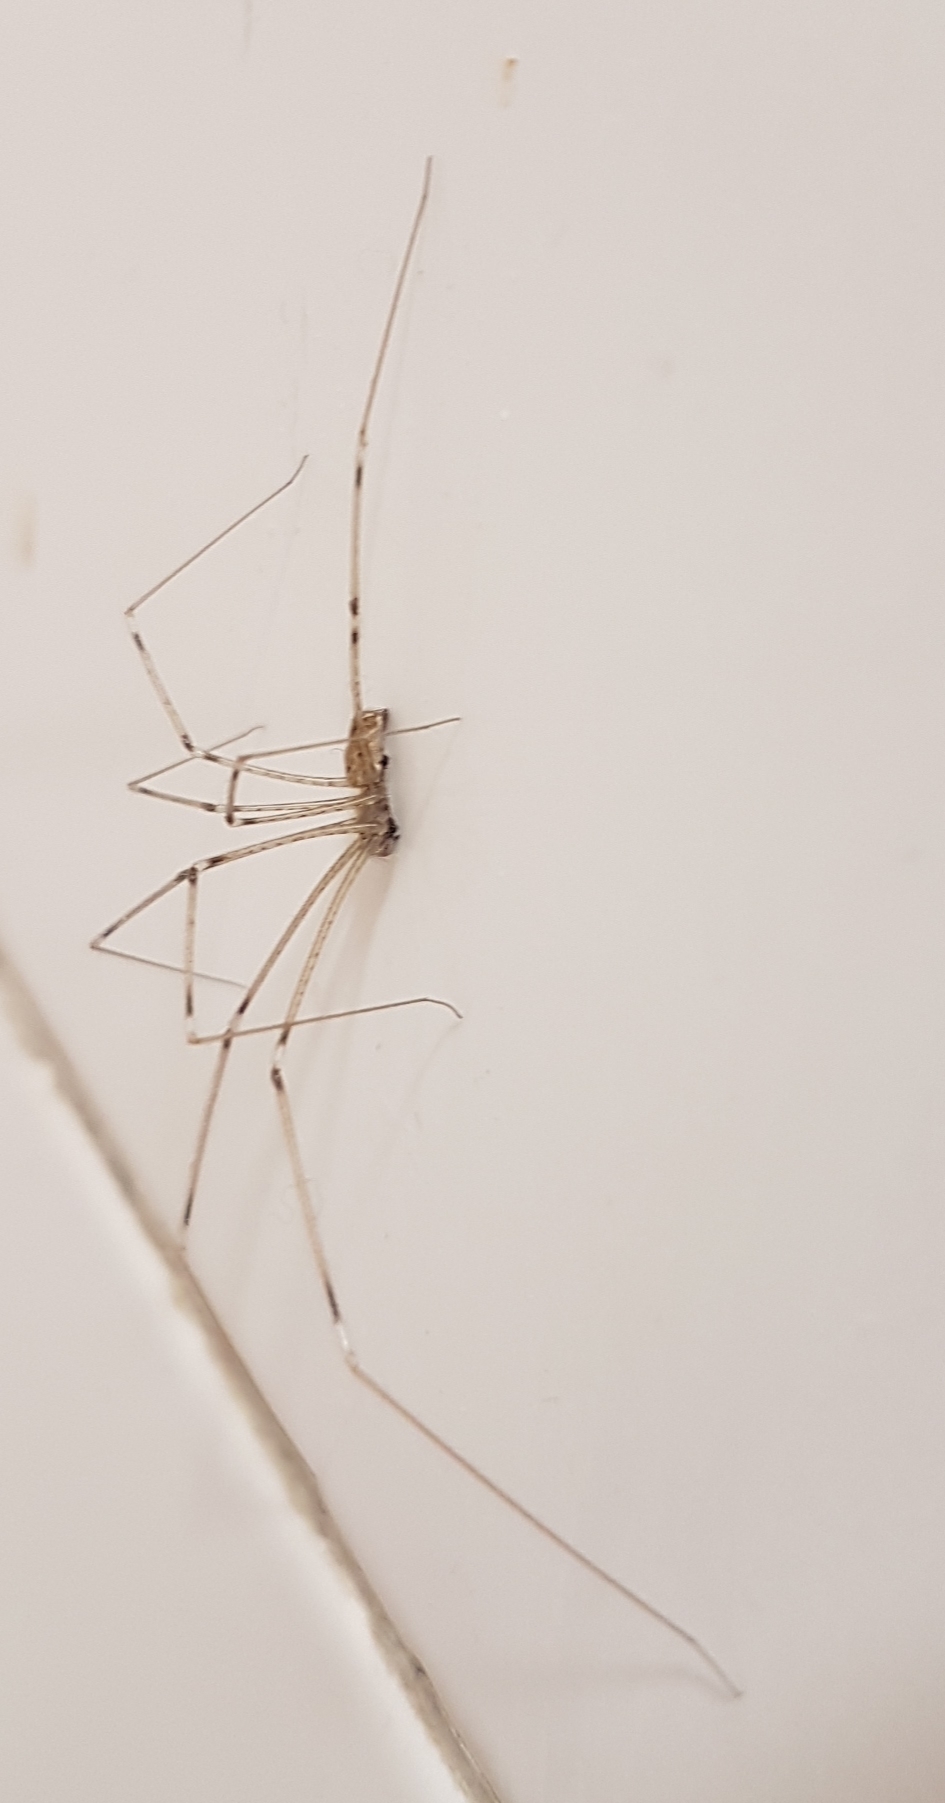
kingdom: Animalia
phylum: Arthropoda
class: Arachnida
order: Araneae
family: Pholcidae
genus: Holocnemus
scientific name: Holocnemus pluchei
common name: Marbled cellar spider
